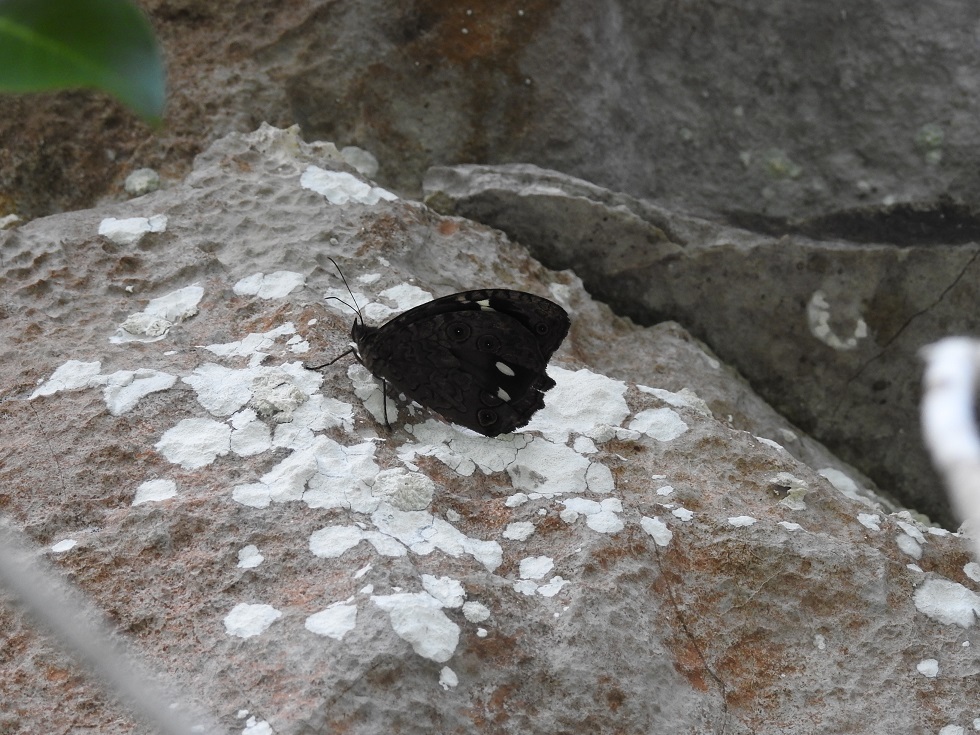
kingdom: Animalia
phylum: Arthropoda
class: Insecta
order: Lepidoptera
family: Nymphalidae
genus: Manataria
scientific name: Manataria maculata
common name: White-spotted satyr
